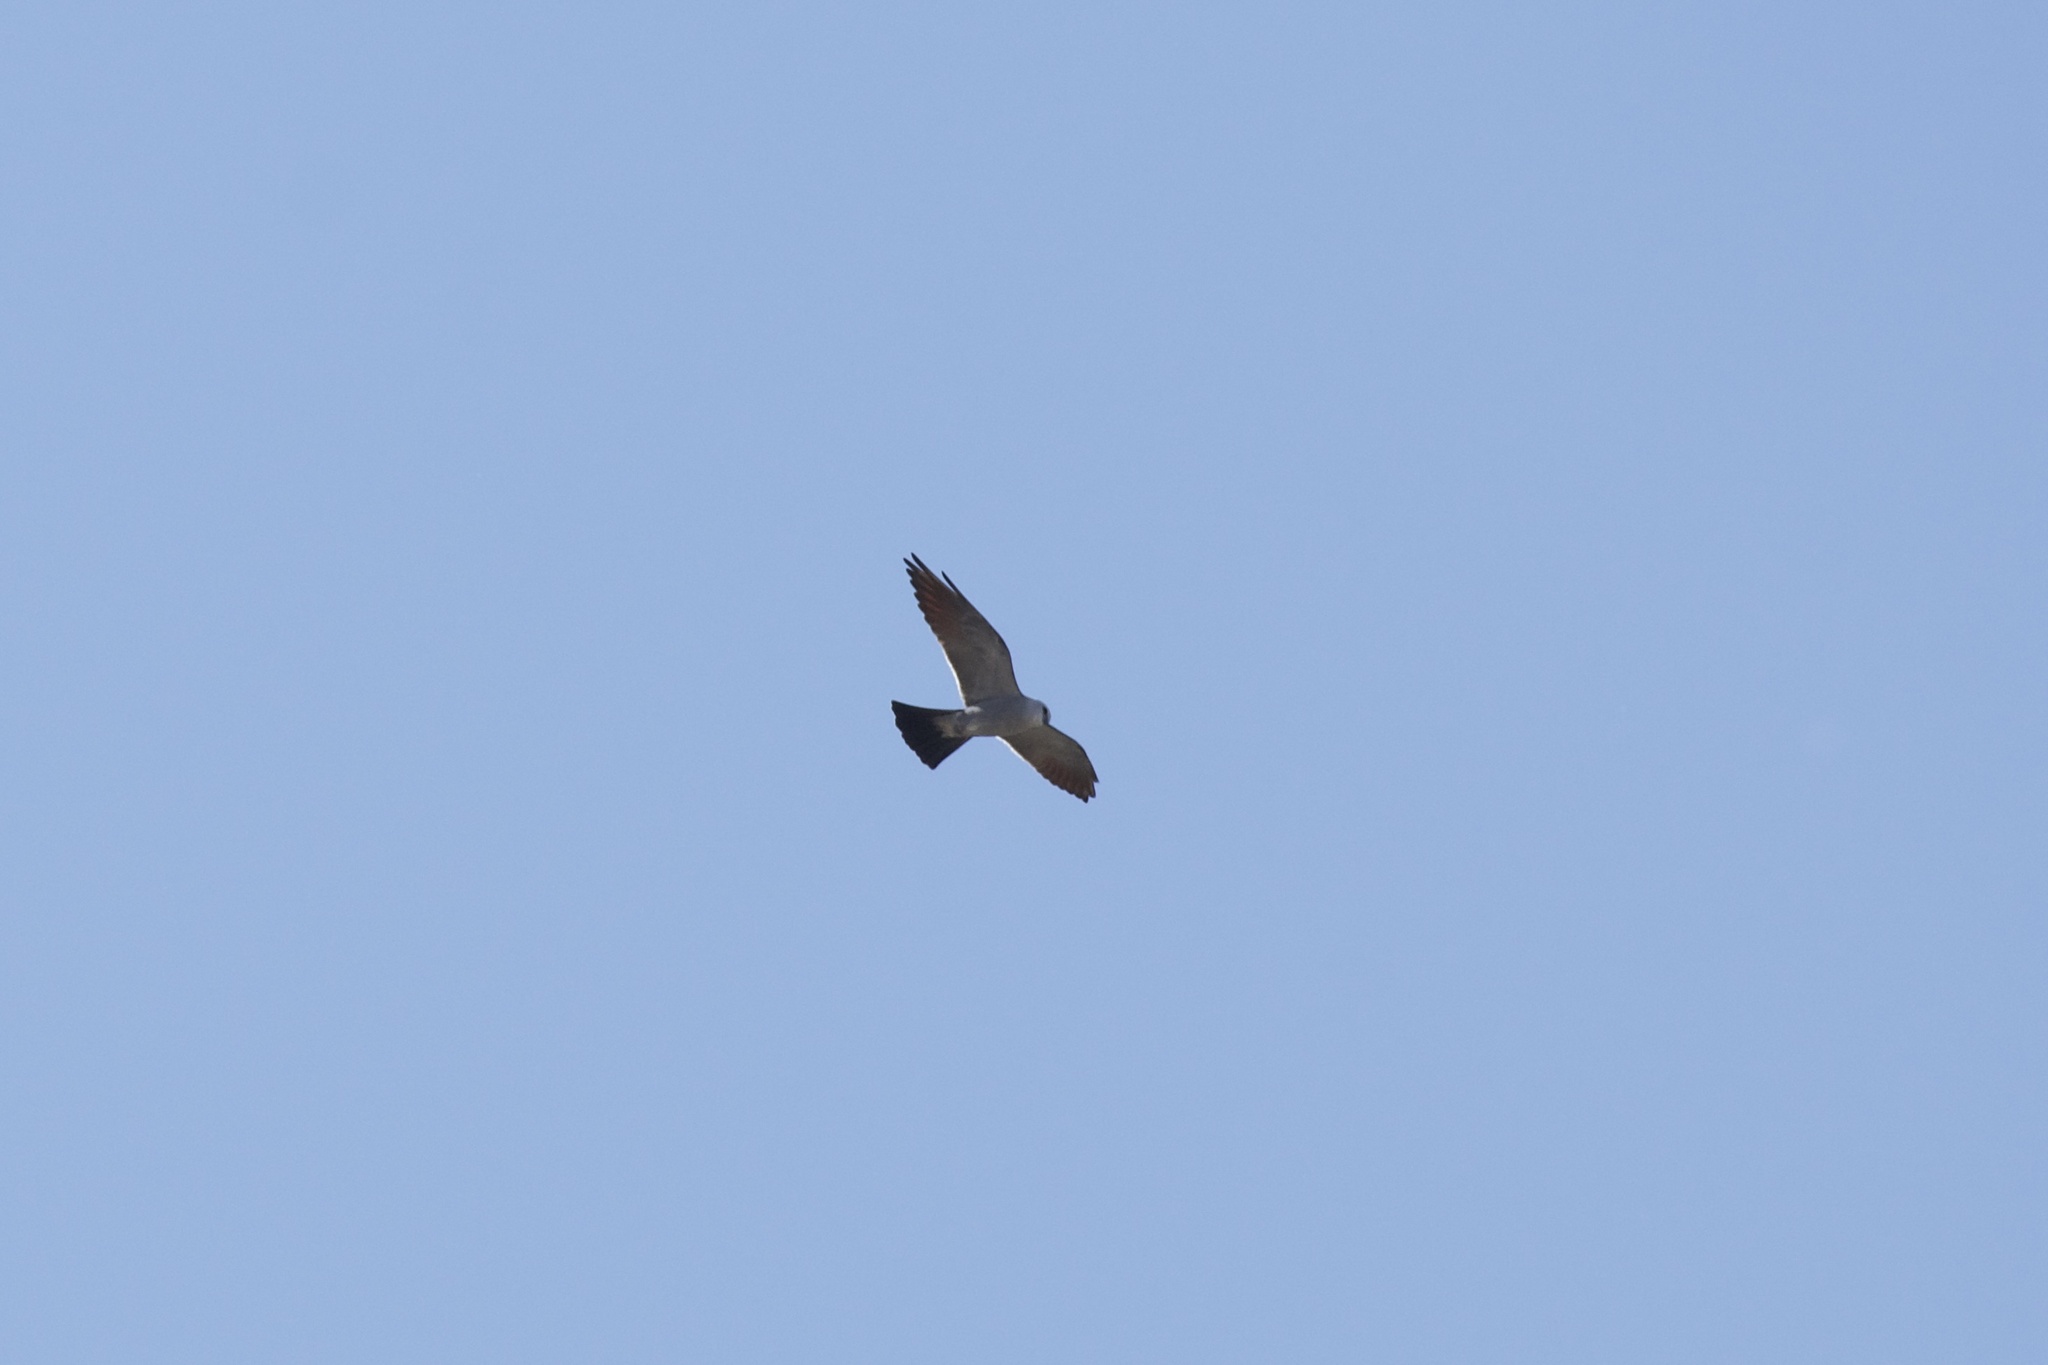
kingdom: Animalia
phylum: Chordata
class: Aves
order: Accipitriformes
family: Accipitridae
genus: Ictinia
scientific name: Ictinia mississippiensis
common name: Mississippi kite
